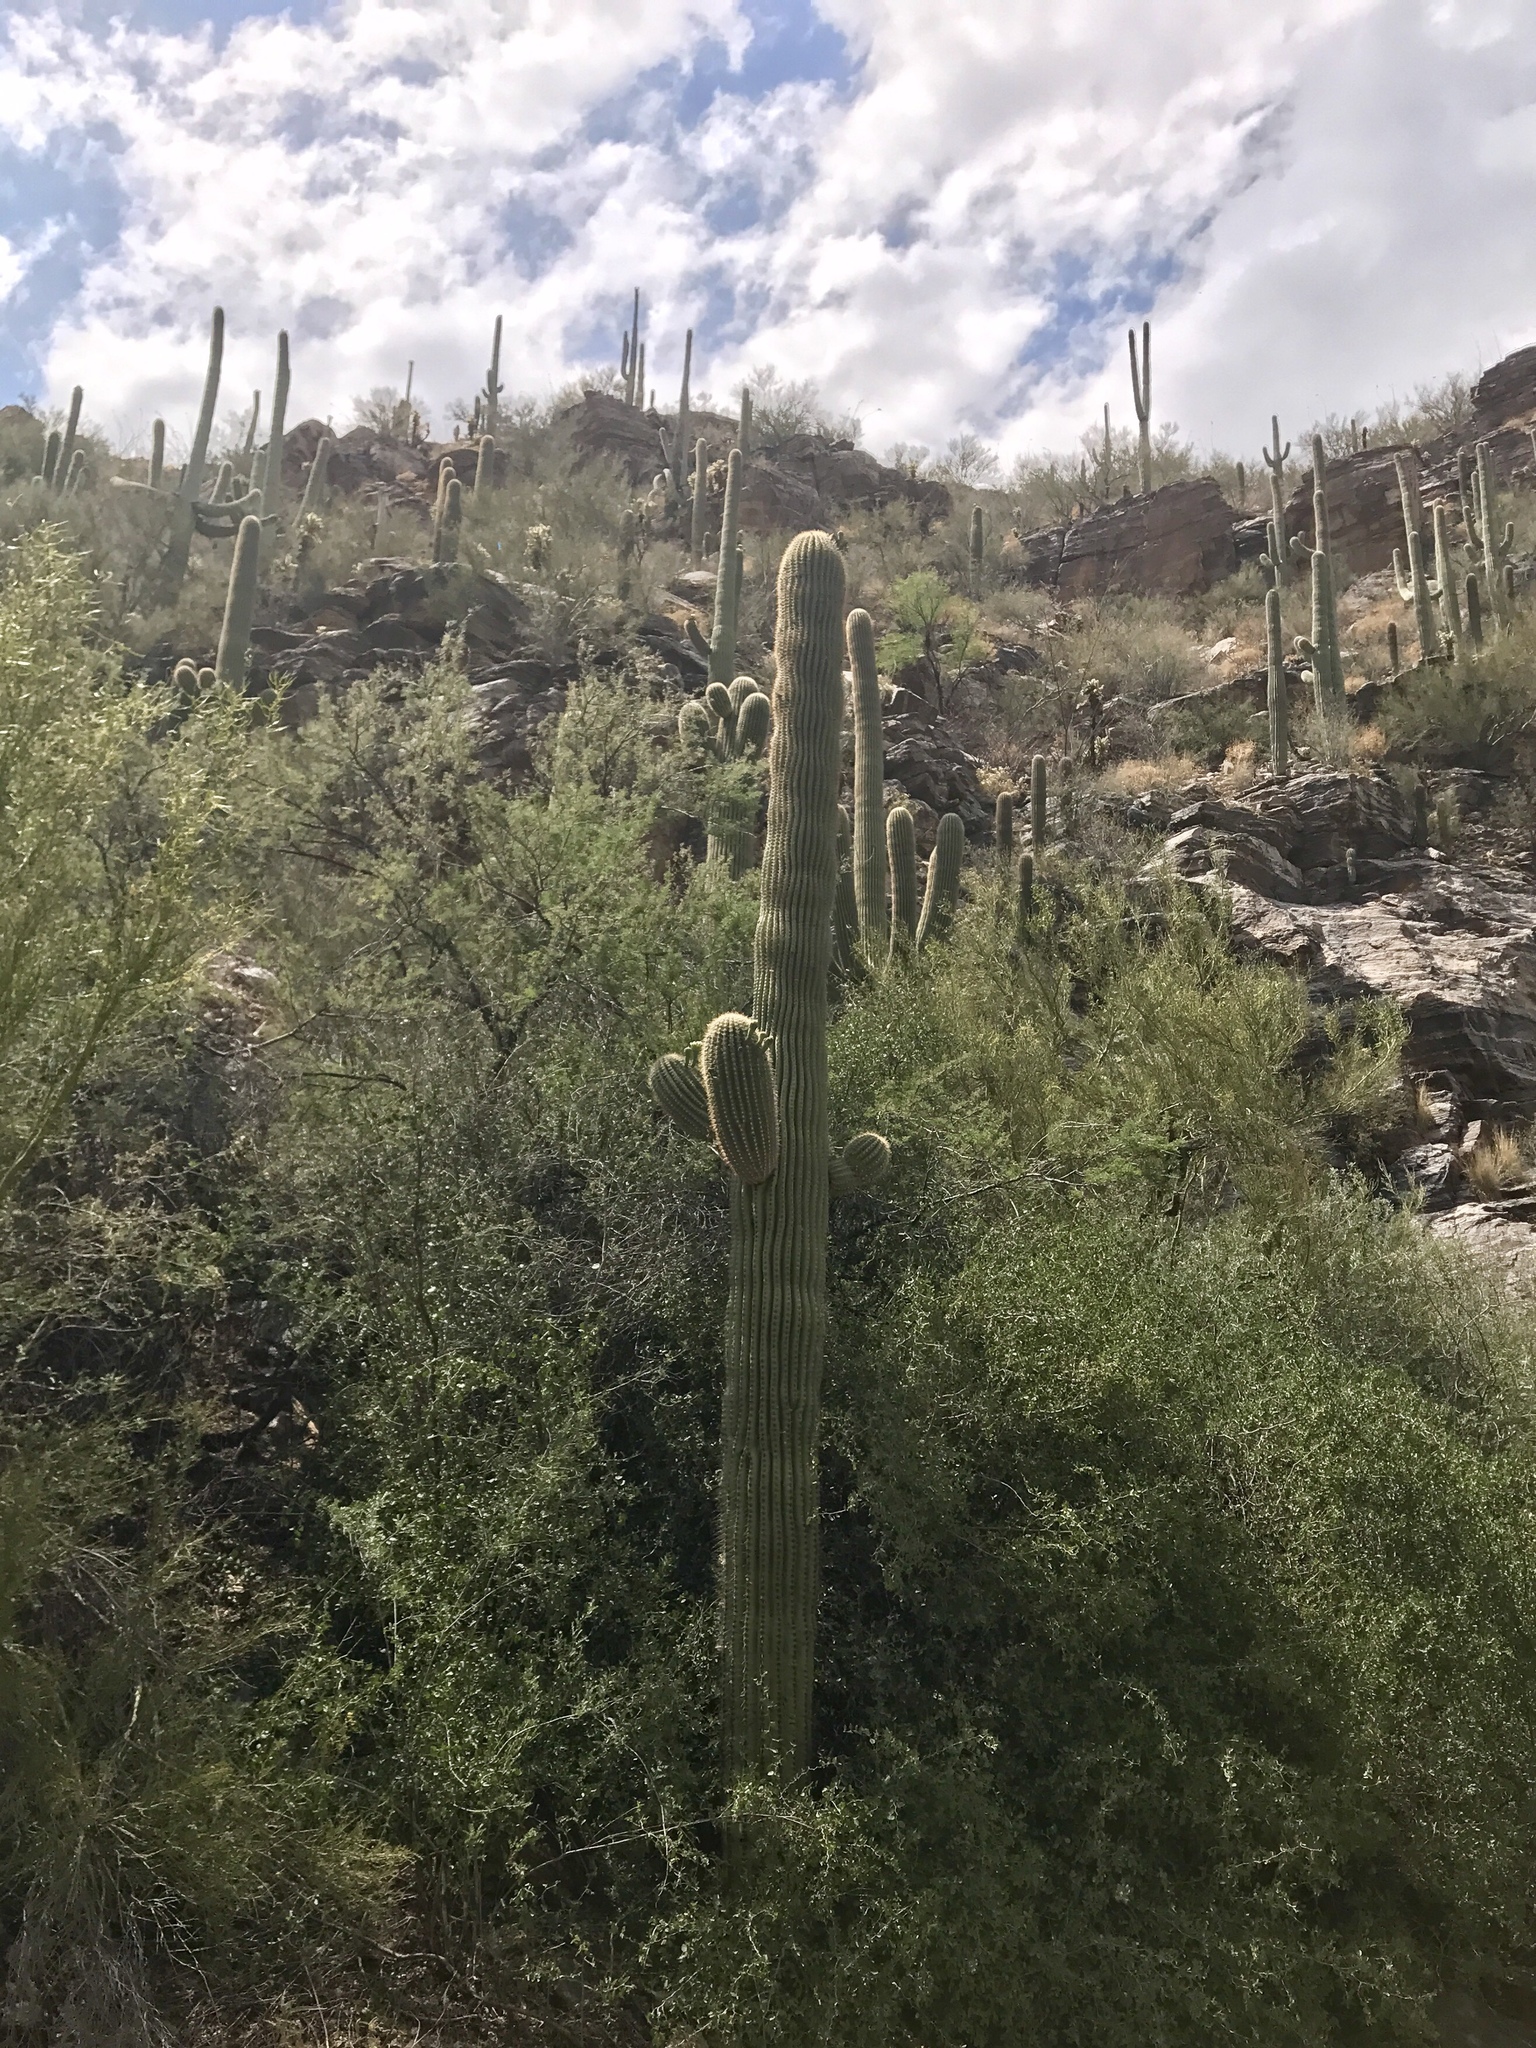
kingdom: Plantae
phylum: Tracheophyta
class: Magnoliopsida
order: Caryophyllales
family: Cactaceae
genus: Carnegiea
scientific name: Carnegiea gigantea
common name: Saguaro
